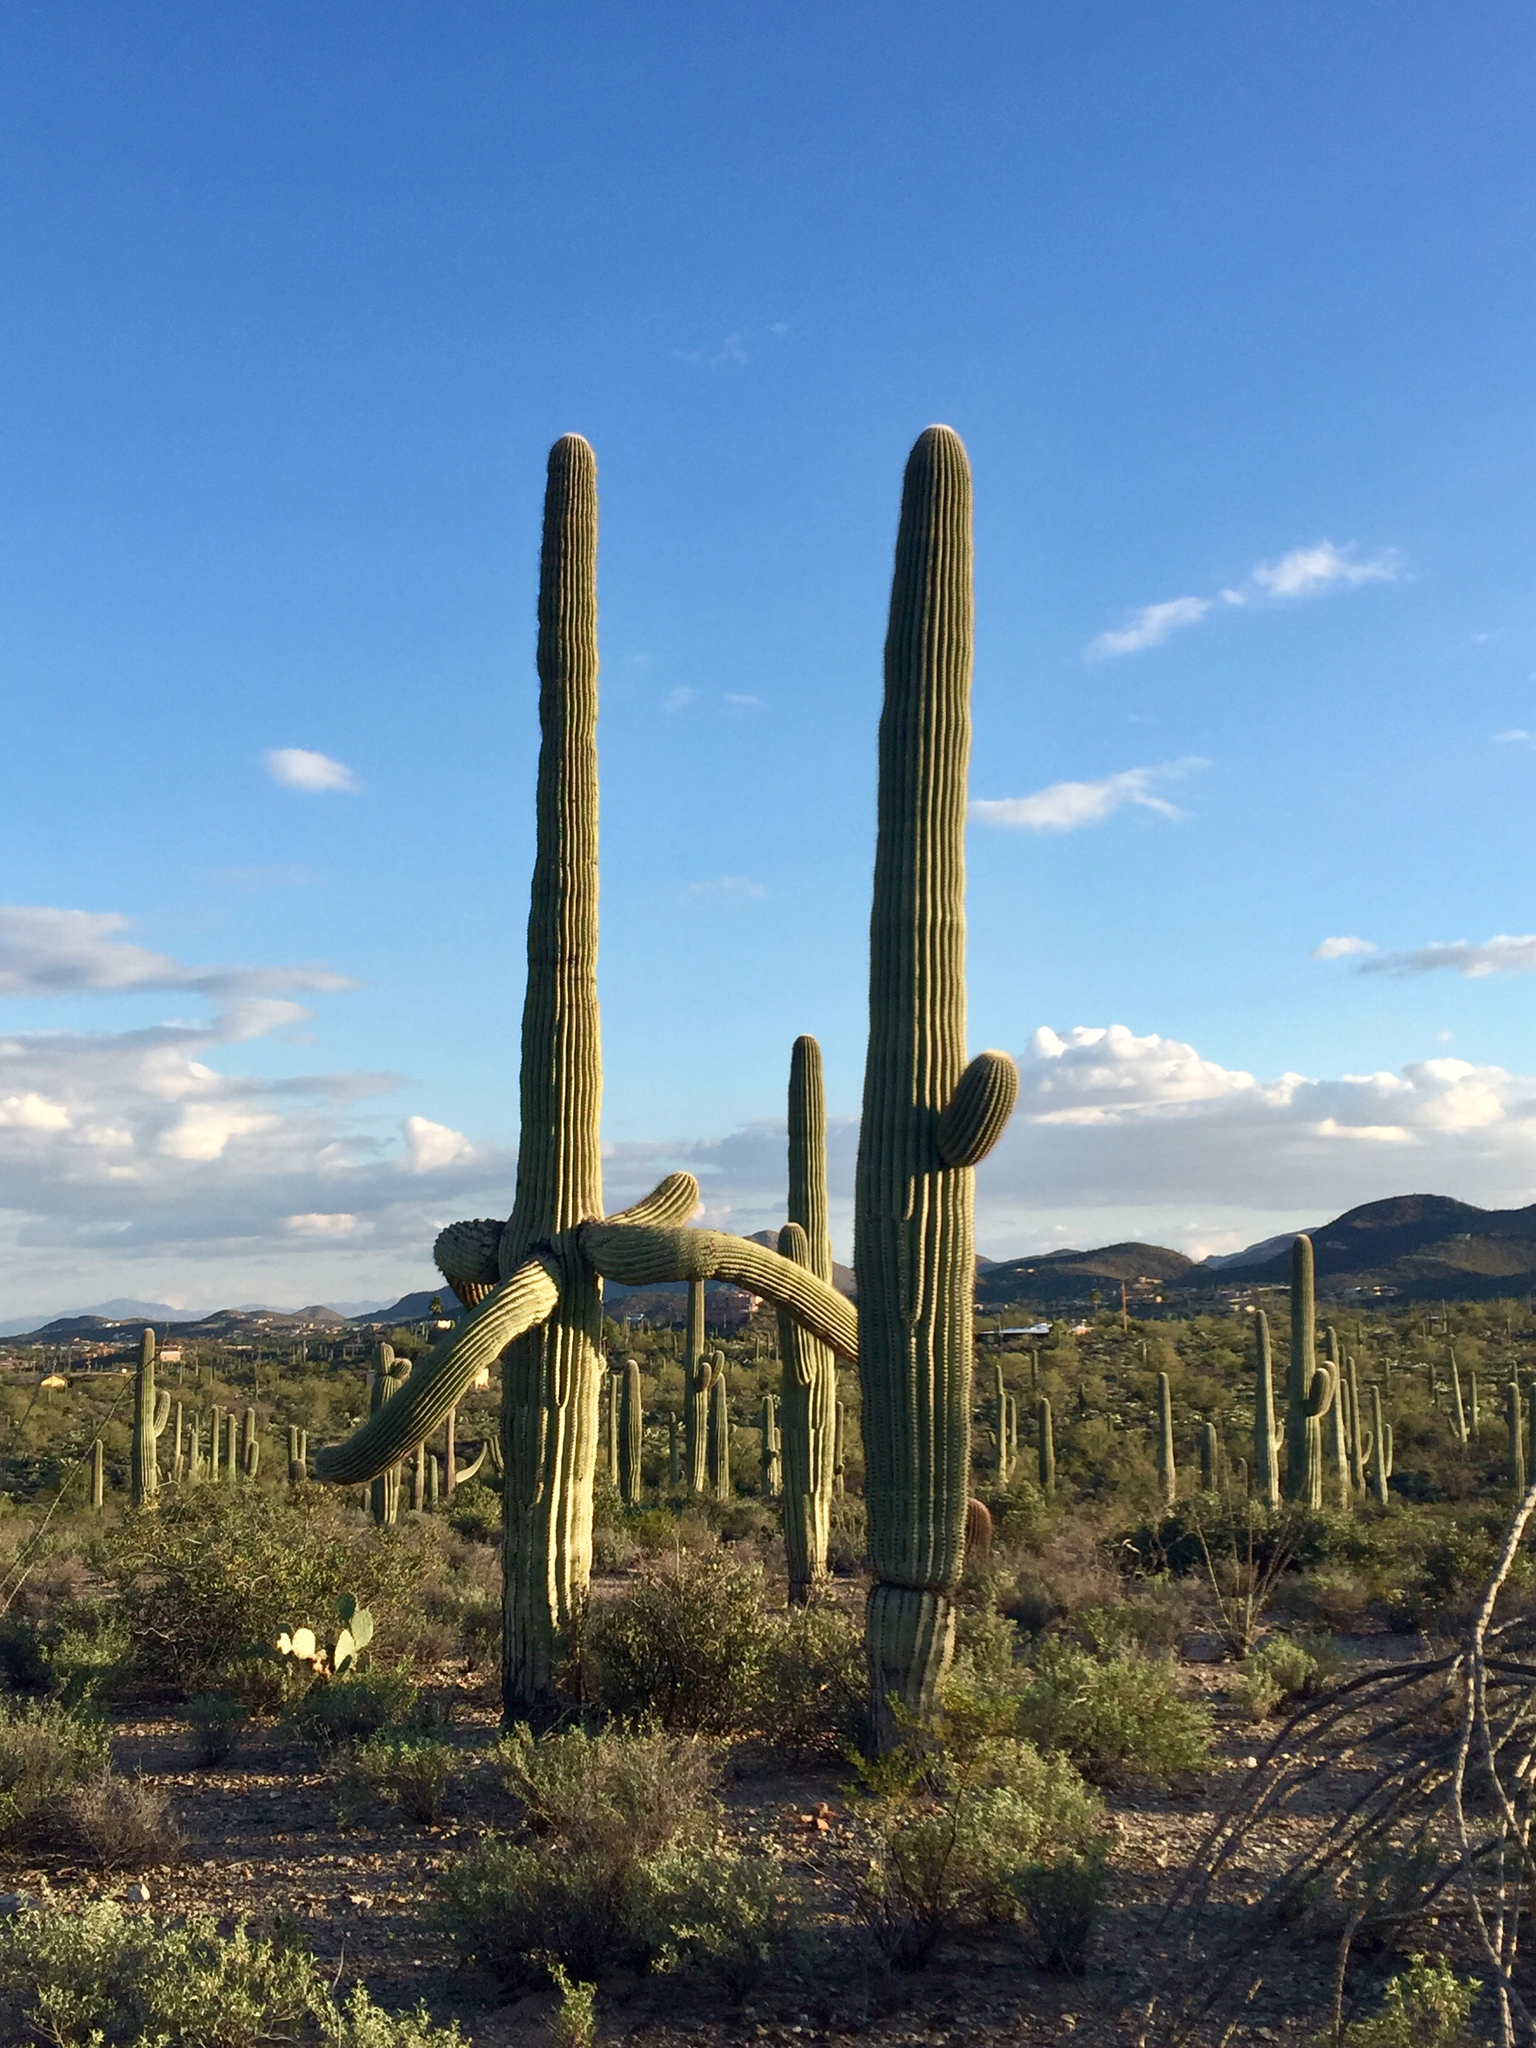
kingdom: Plantae
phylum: Tracheophyta
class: Magnoliopsida
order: Caryophyllales
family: Cactaceae
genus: Carnegiea
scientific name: Carnegiea gigantea
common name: Saguaro
